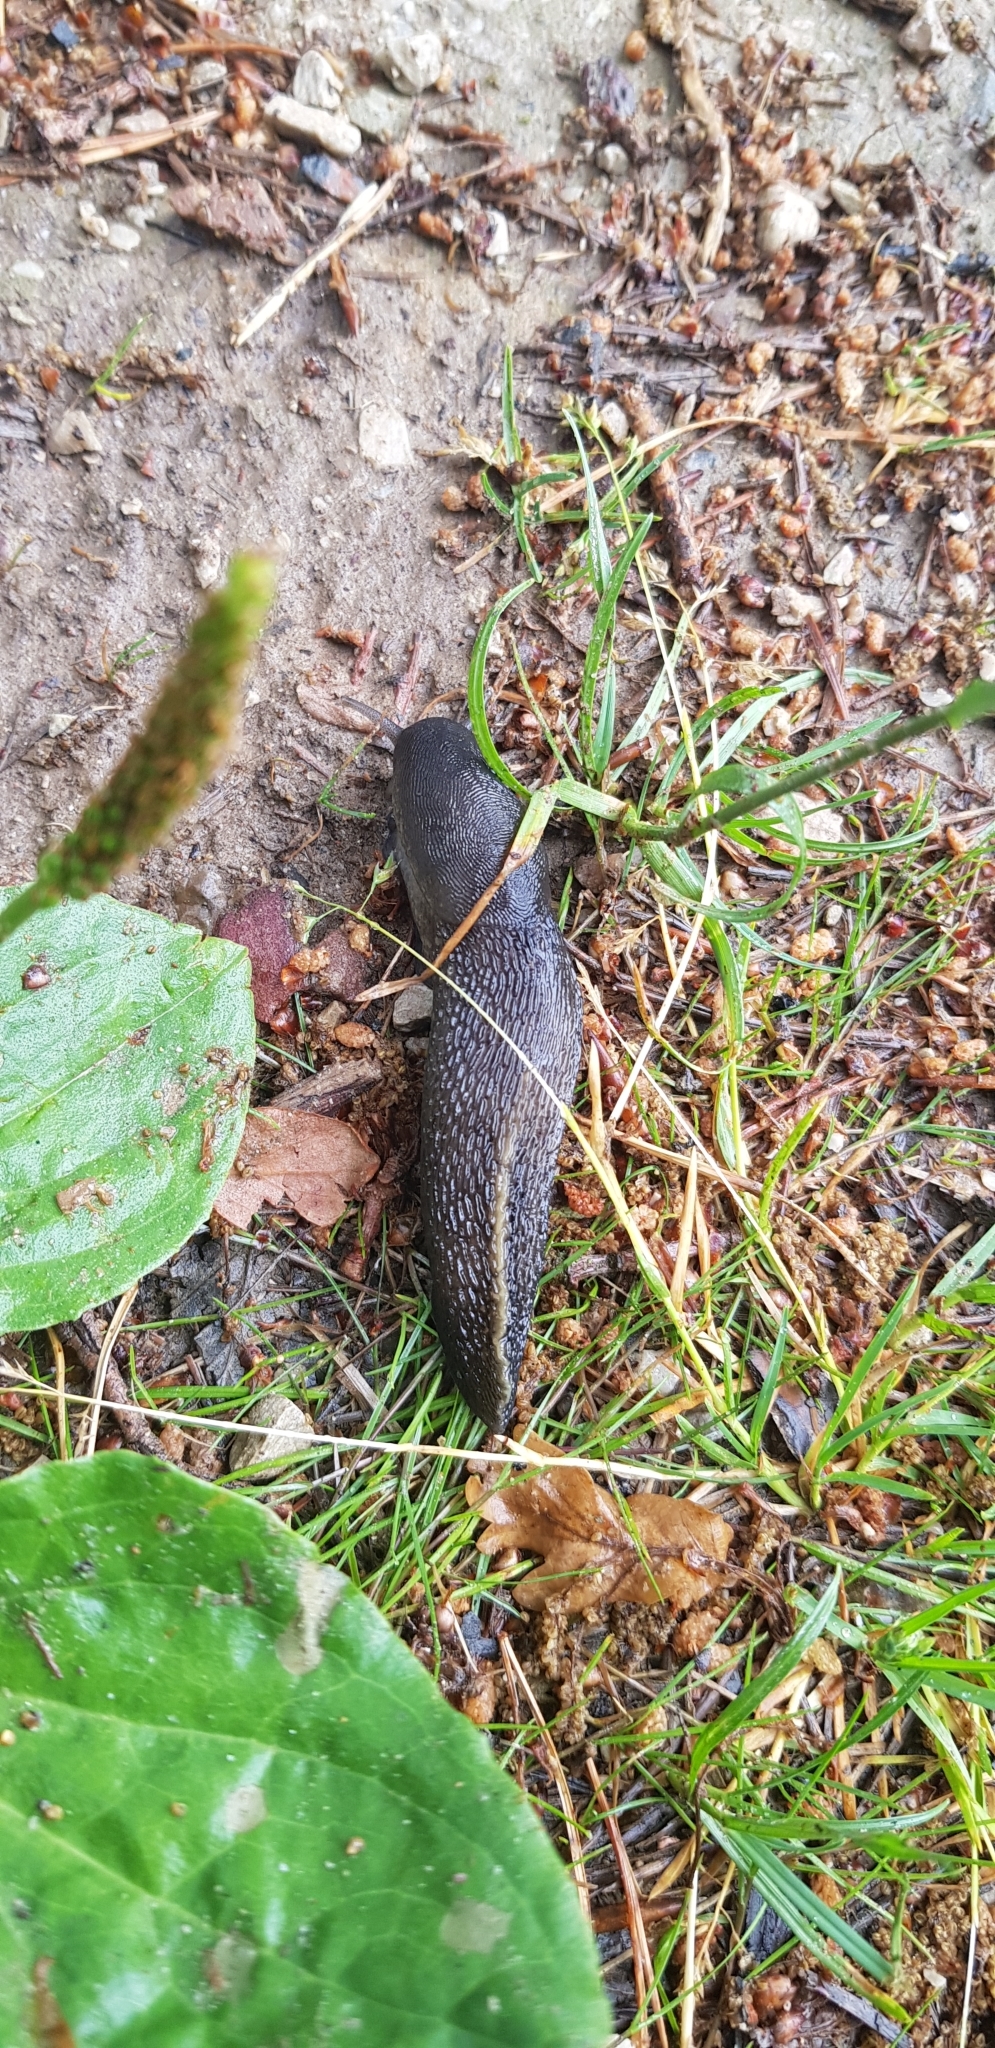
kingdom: Animalia
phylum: Mollusca
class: Gastropoda
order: Stylommatophora
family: Limacidae
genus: Limax
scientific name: Limax cinereoniger
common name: Ash-black slug
